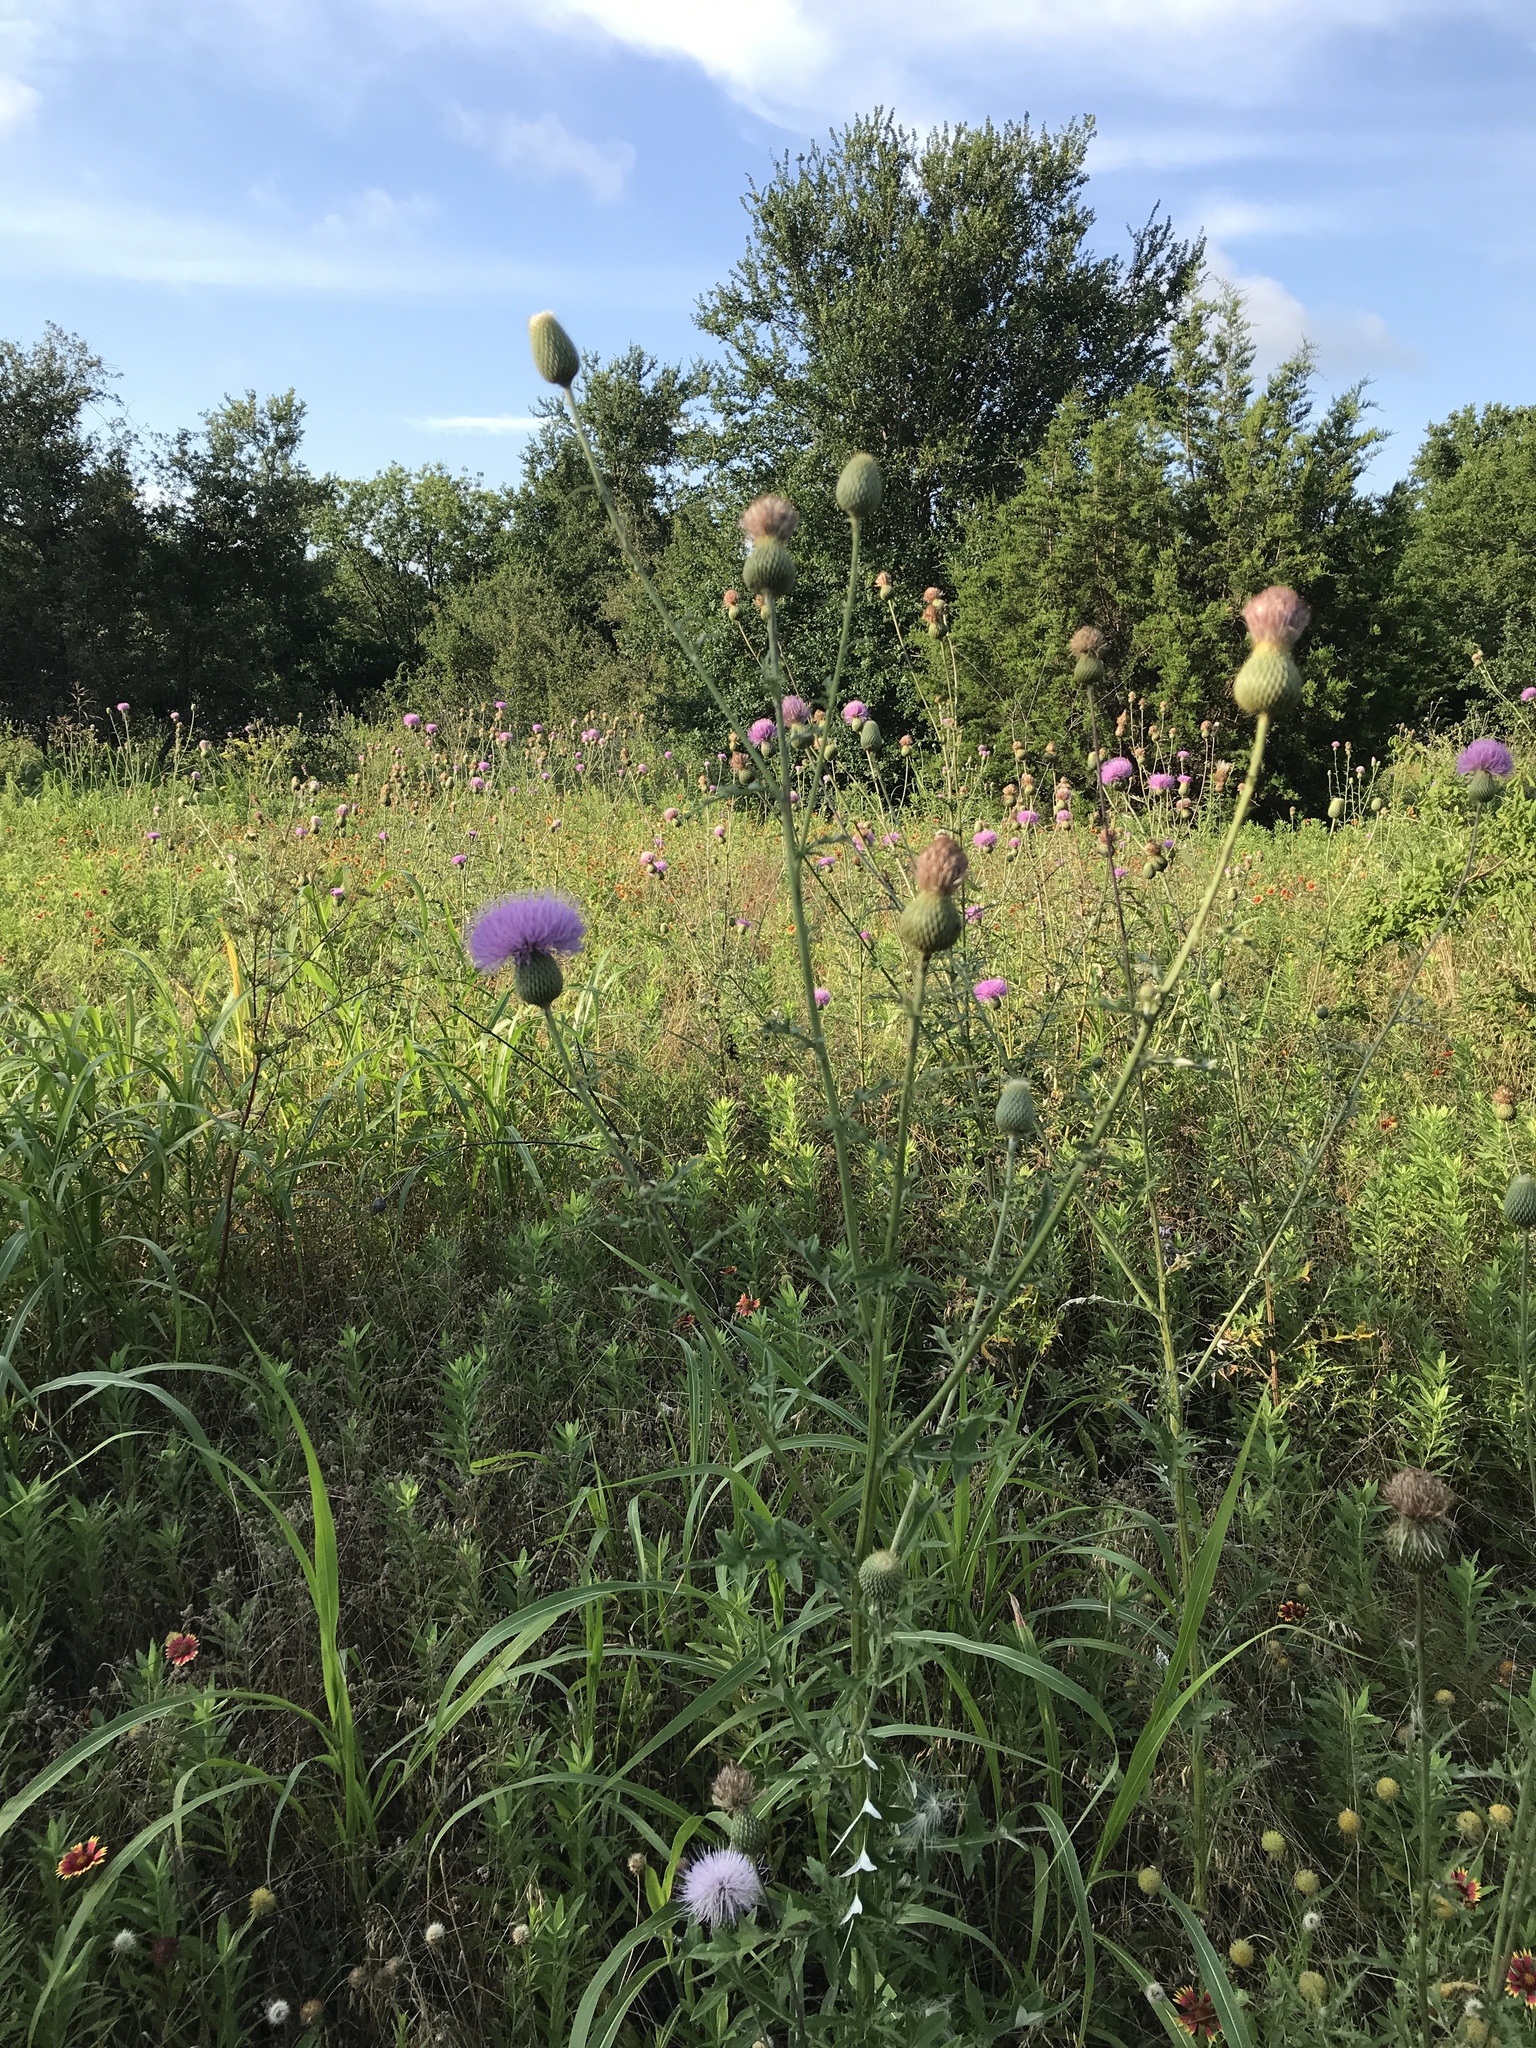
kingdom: Plantae
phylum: Tracheophyta
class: Magnoliopsida
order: Asterales
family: Asteraceae
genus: Cirsium
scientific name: Cirsium texanum
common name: Texas purple thistle
